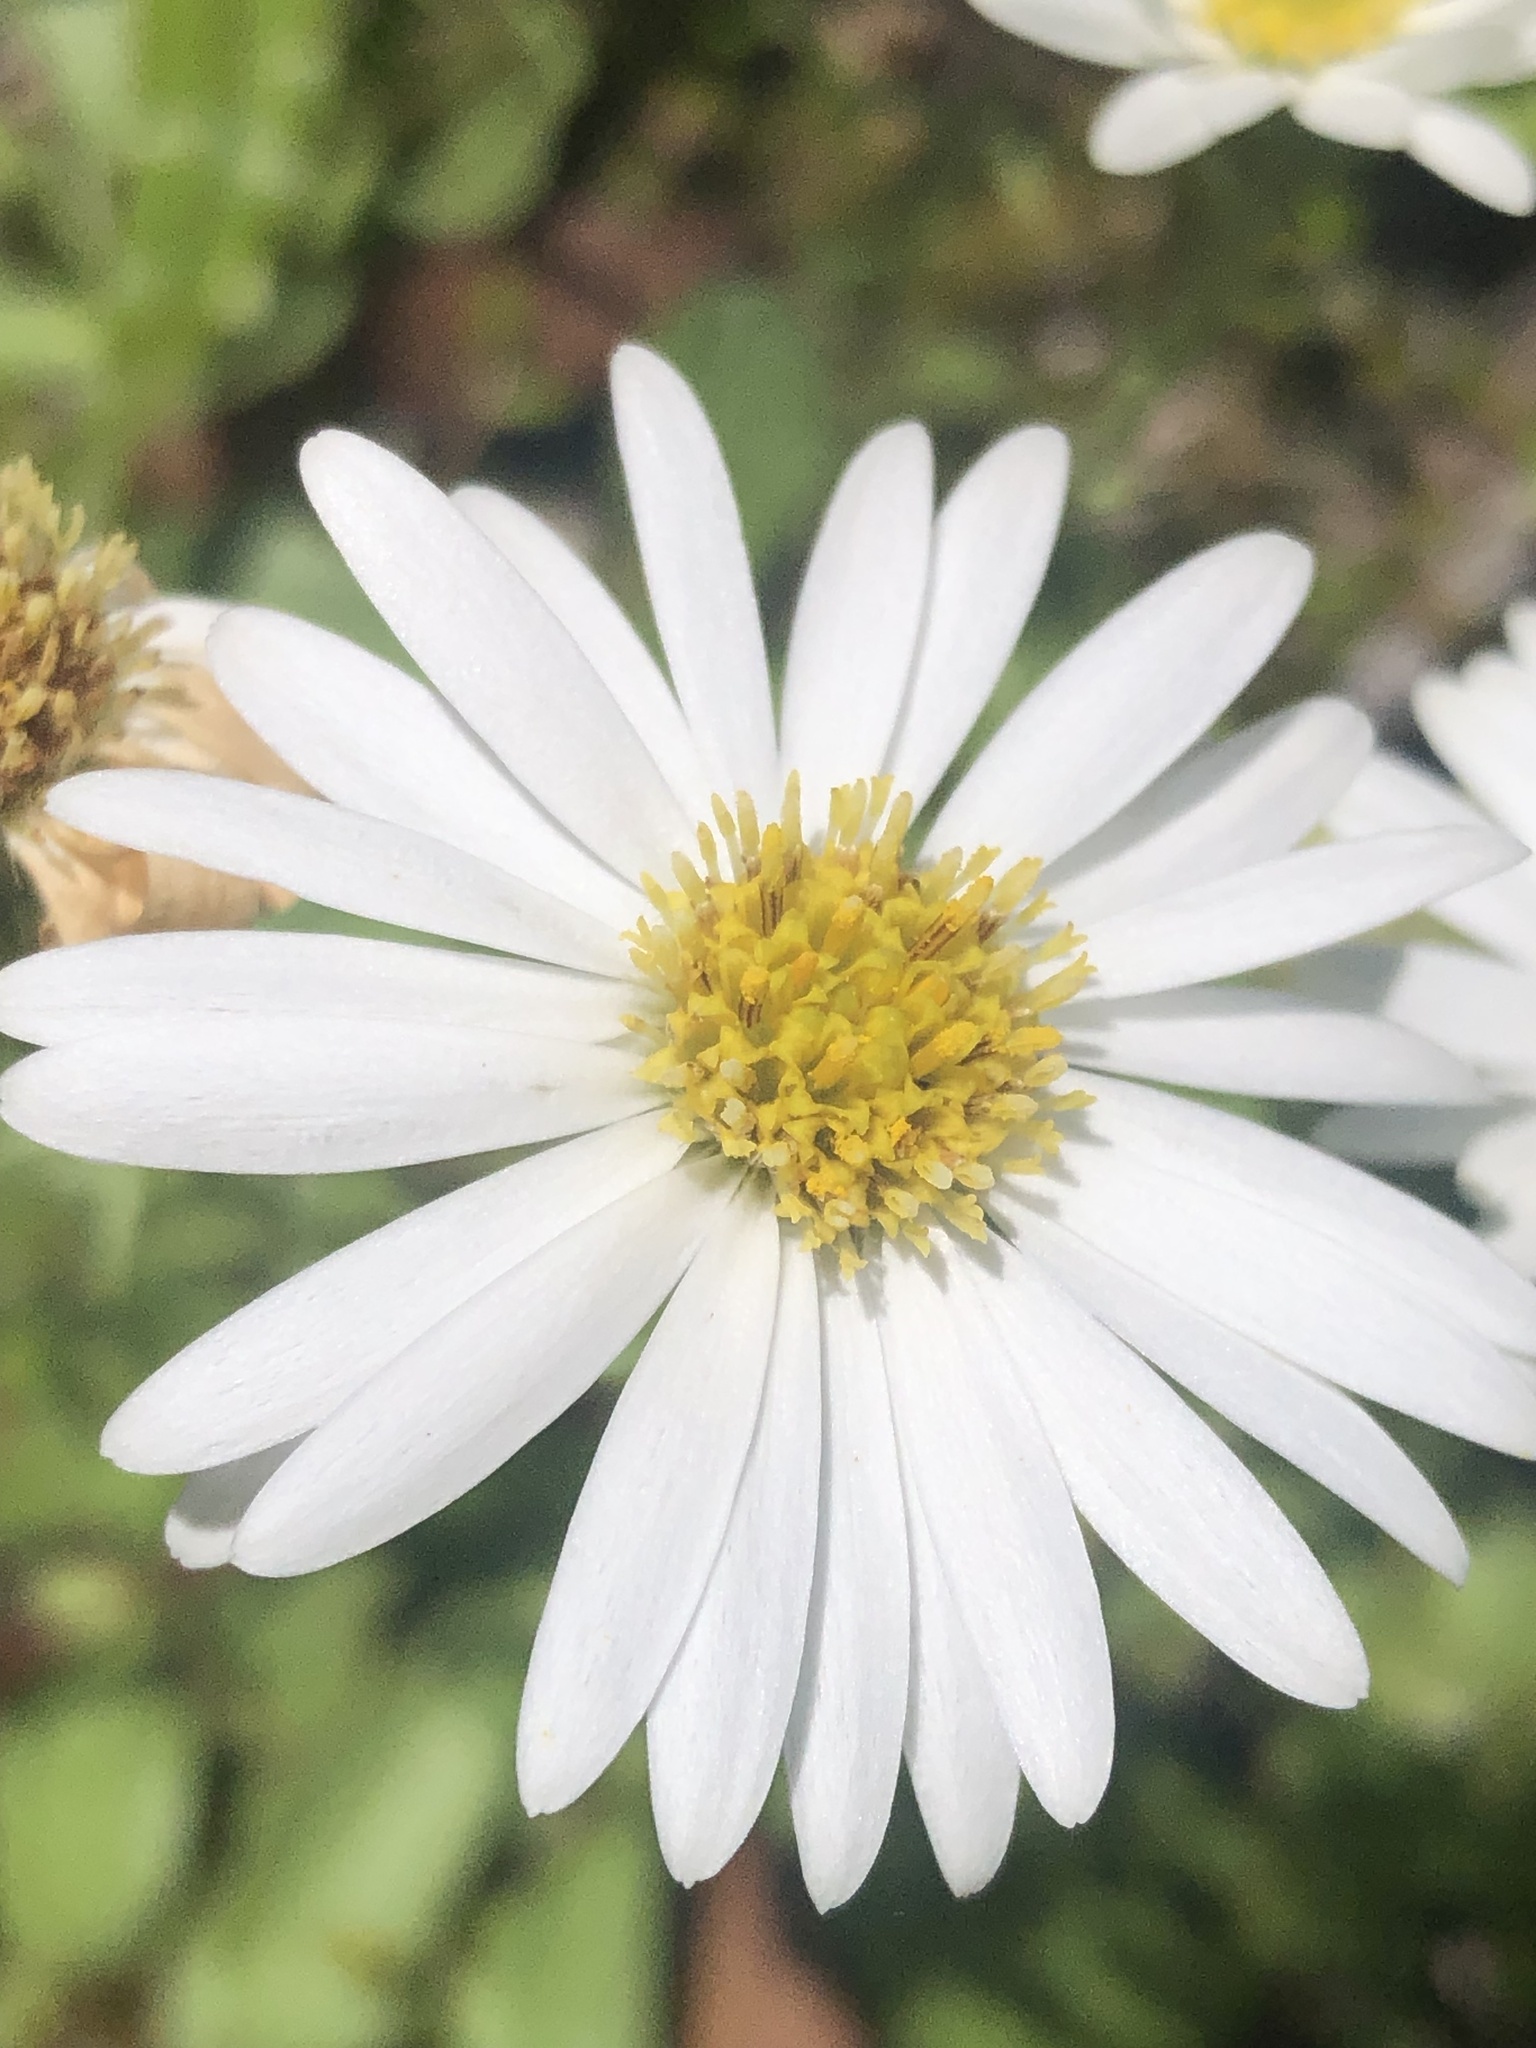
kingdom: Plantae
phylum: Tracheophyta
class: Magnoliopsida
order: Asterales
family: Asteraceae
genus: Celmisia
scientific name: Celmisia glandulosa
